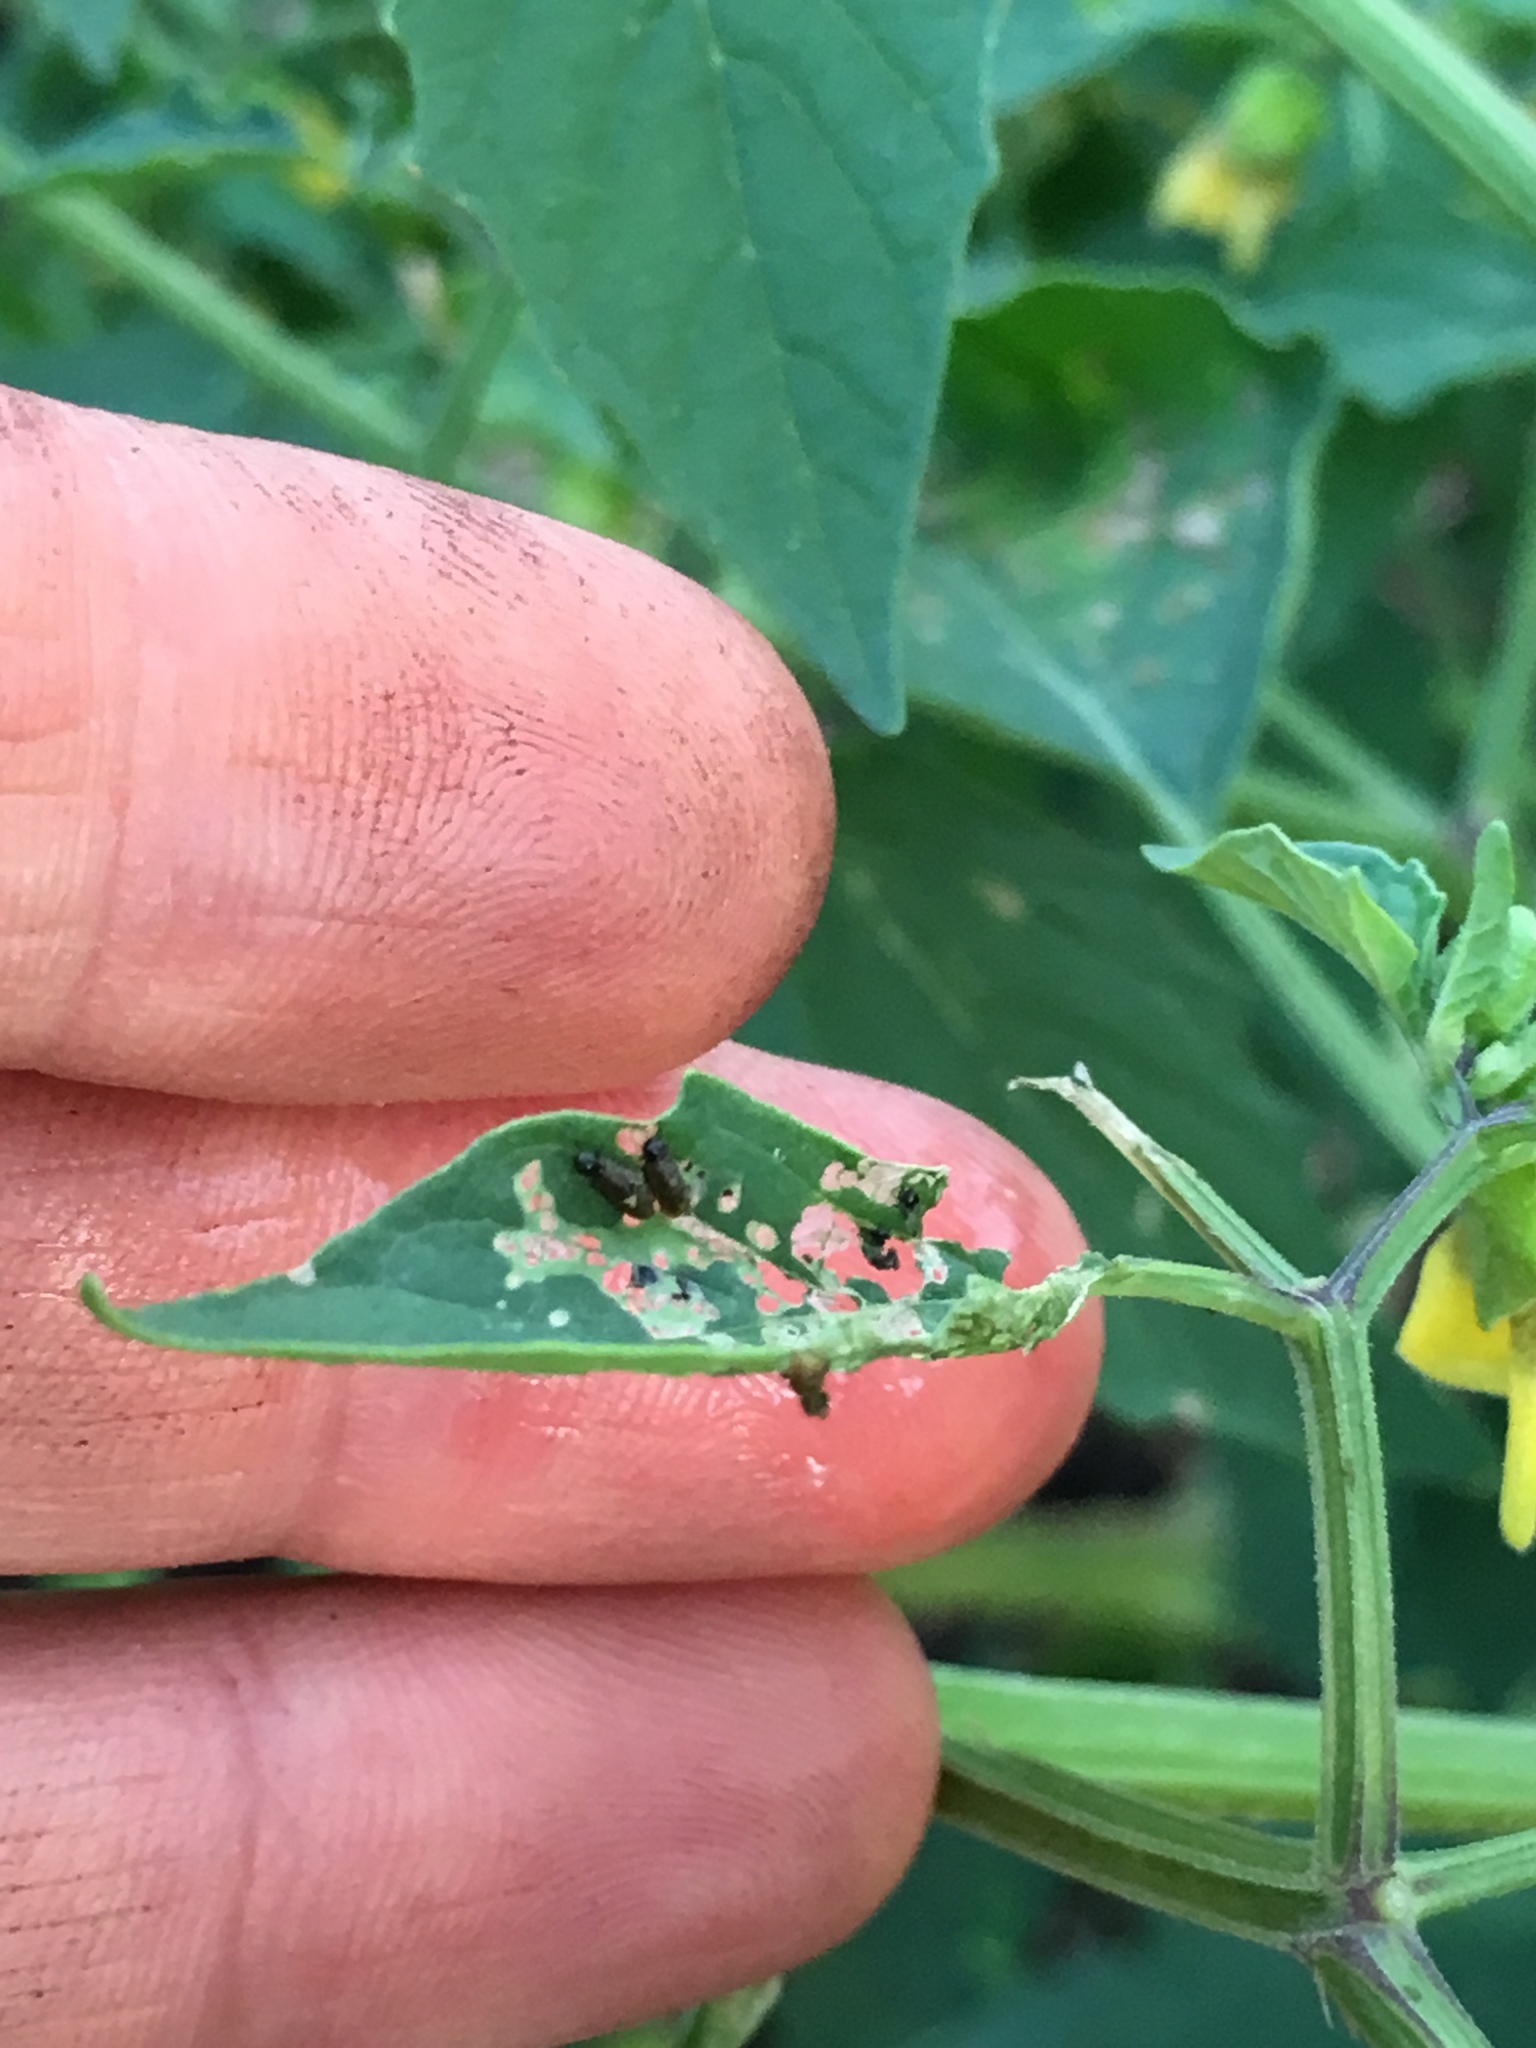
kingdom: Animalia
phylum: Arthropoda
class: Insecta
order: Coleoptera
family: Chrysomelidae
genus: Lema
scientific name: Lema daturaphila
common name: Leaf beetle
